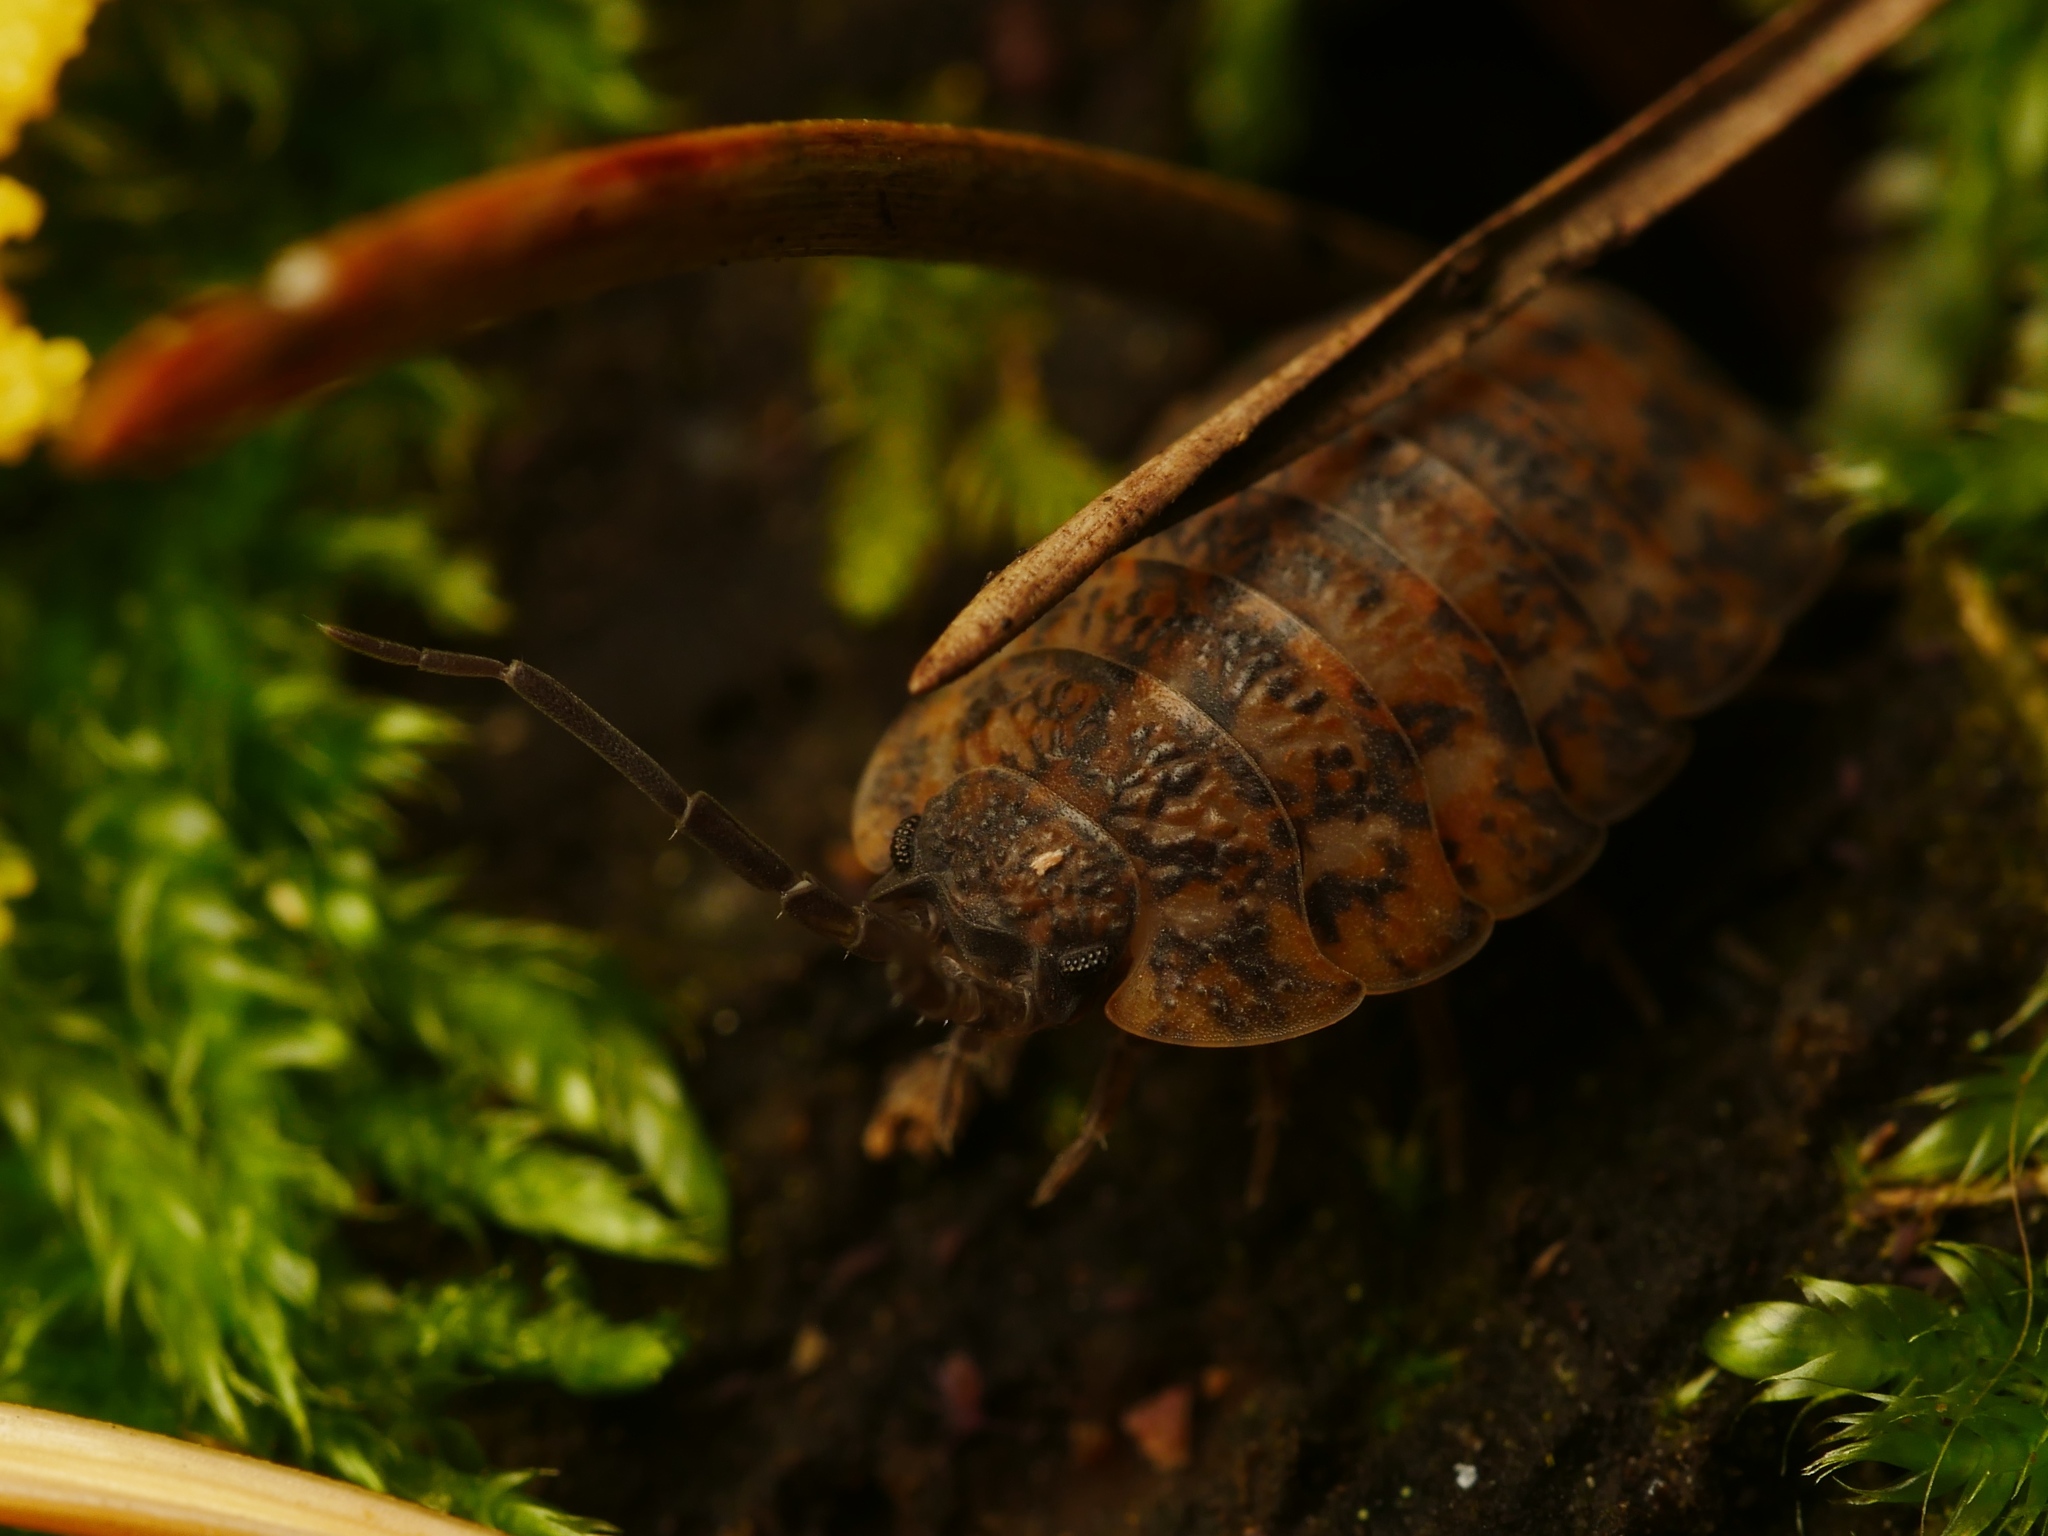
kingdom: Animalia
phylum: Arthropoda
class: Malacostraca
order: Isopoda
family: Trachelipodidae
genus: Trachelipus
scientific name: Trachelipus rathkii
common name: Isopod
